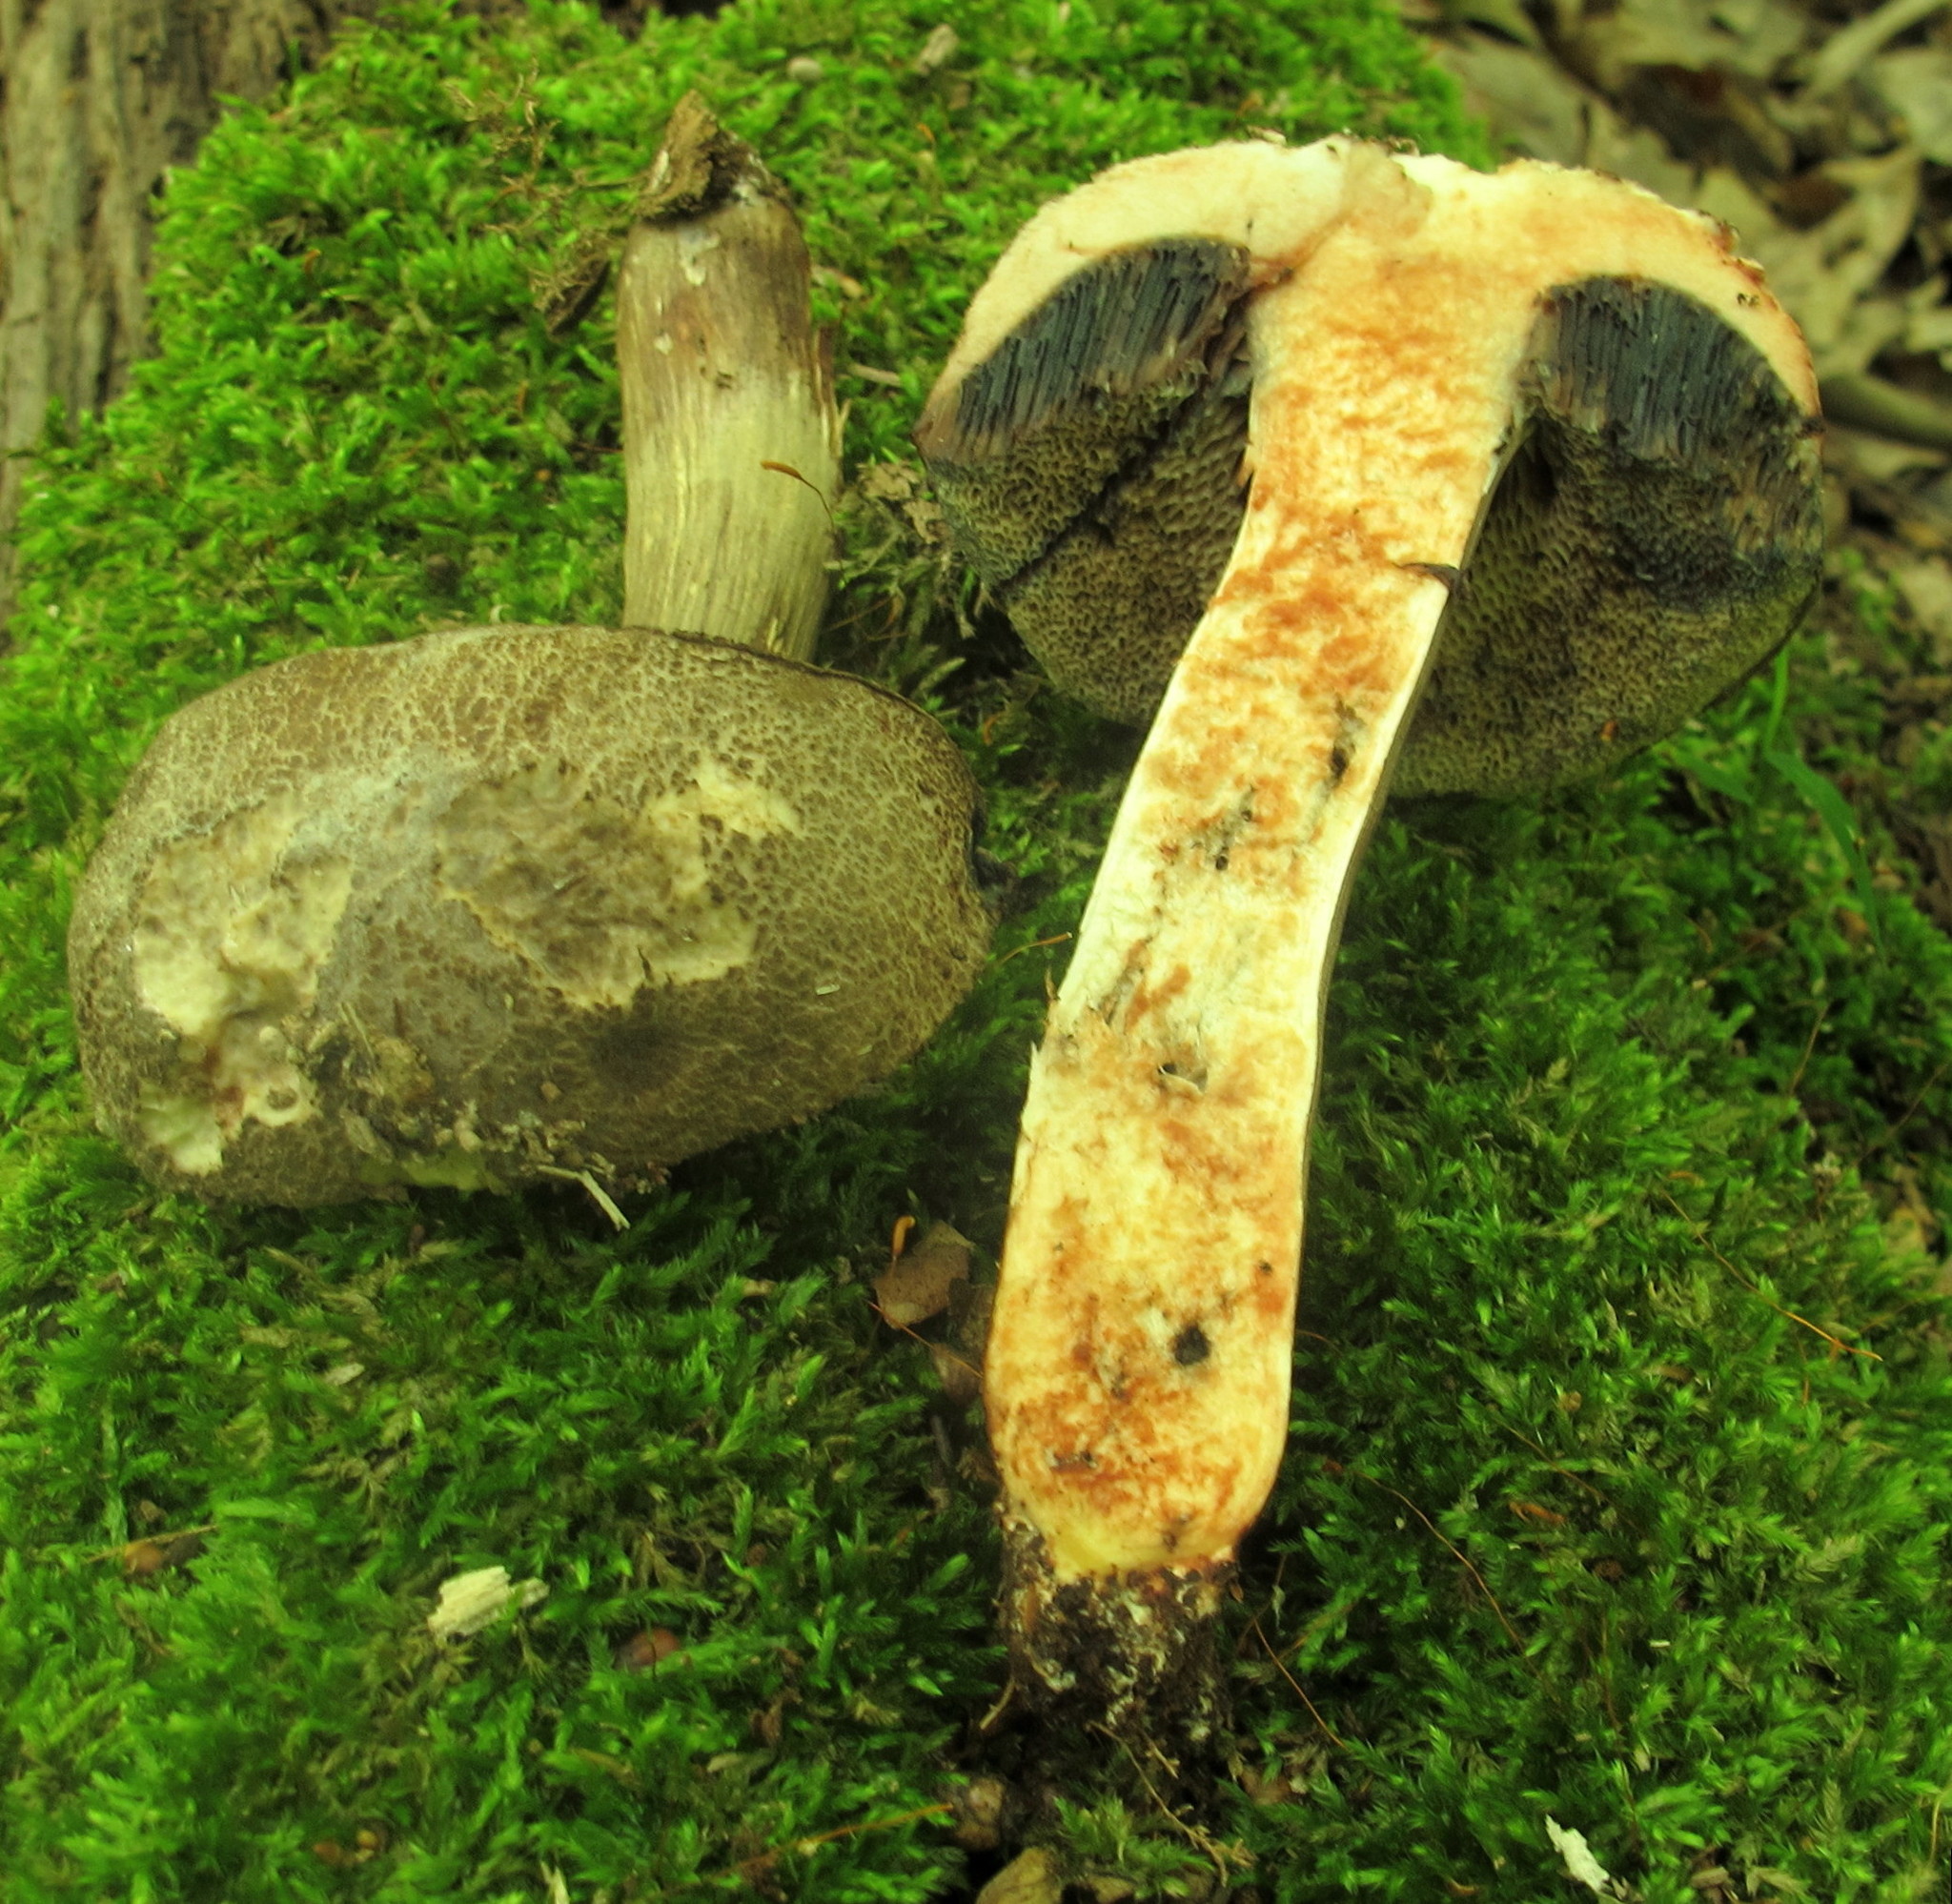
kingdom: Fungi
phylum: Basidiomycota
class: Agaricomycetes
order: Boletales
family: Boletaceae
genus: Porphyrellus
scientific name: Porphyrellus sordidus
